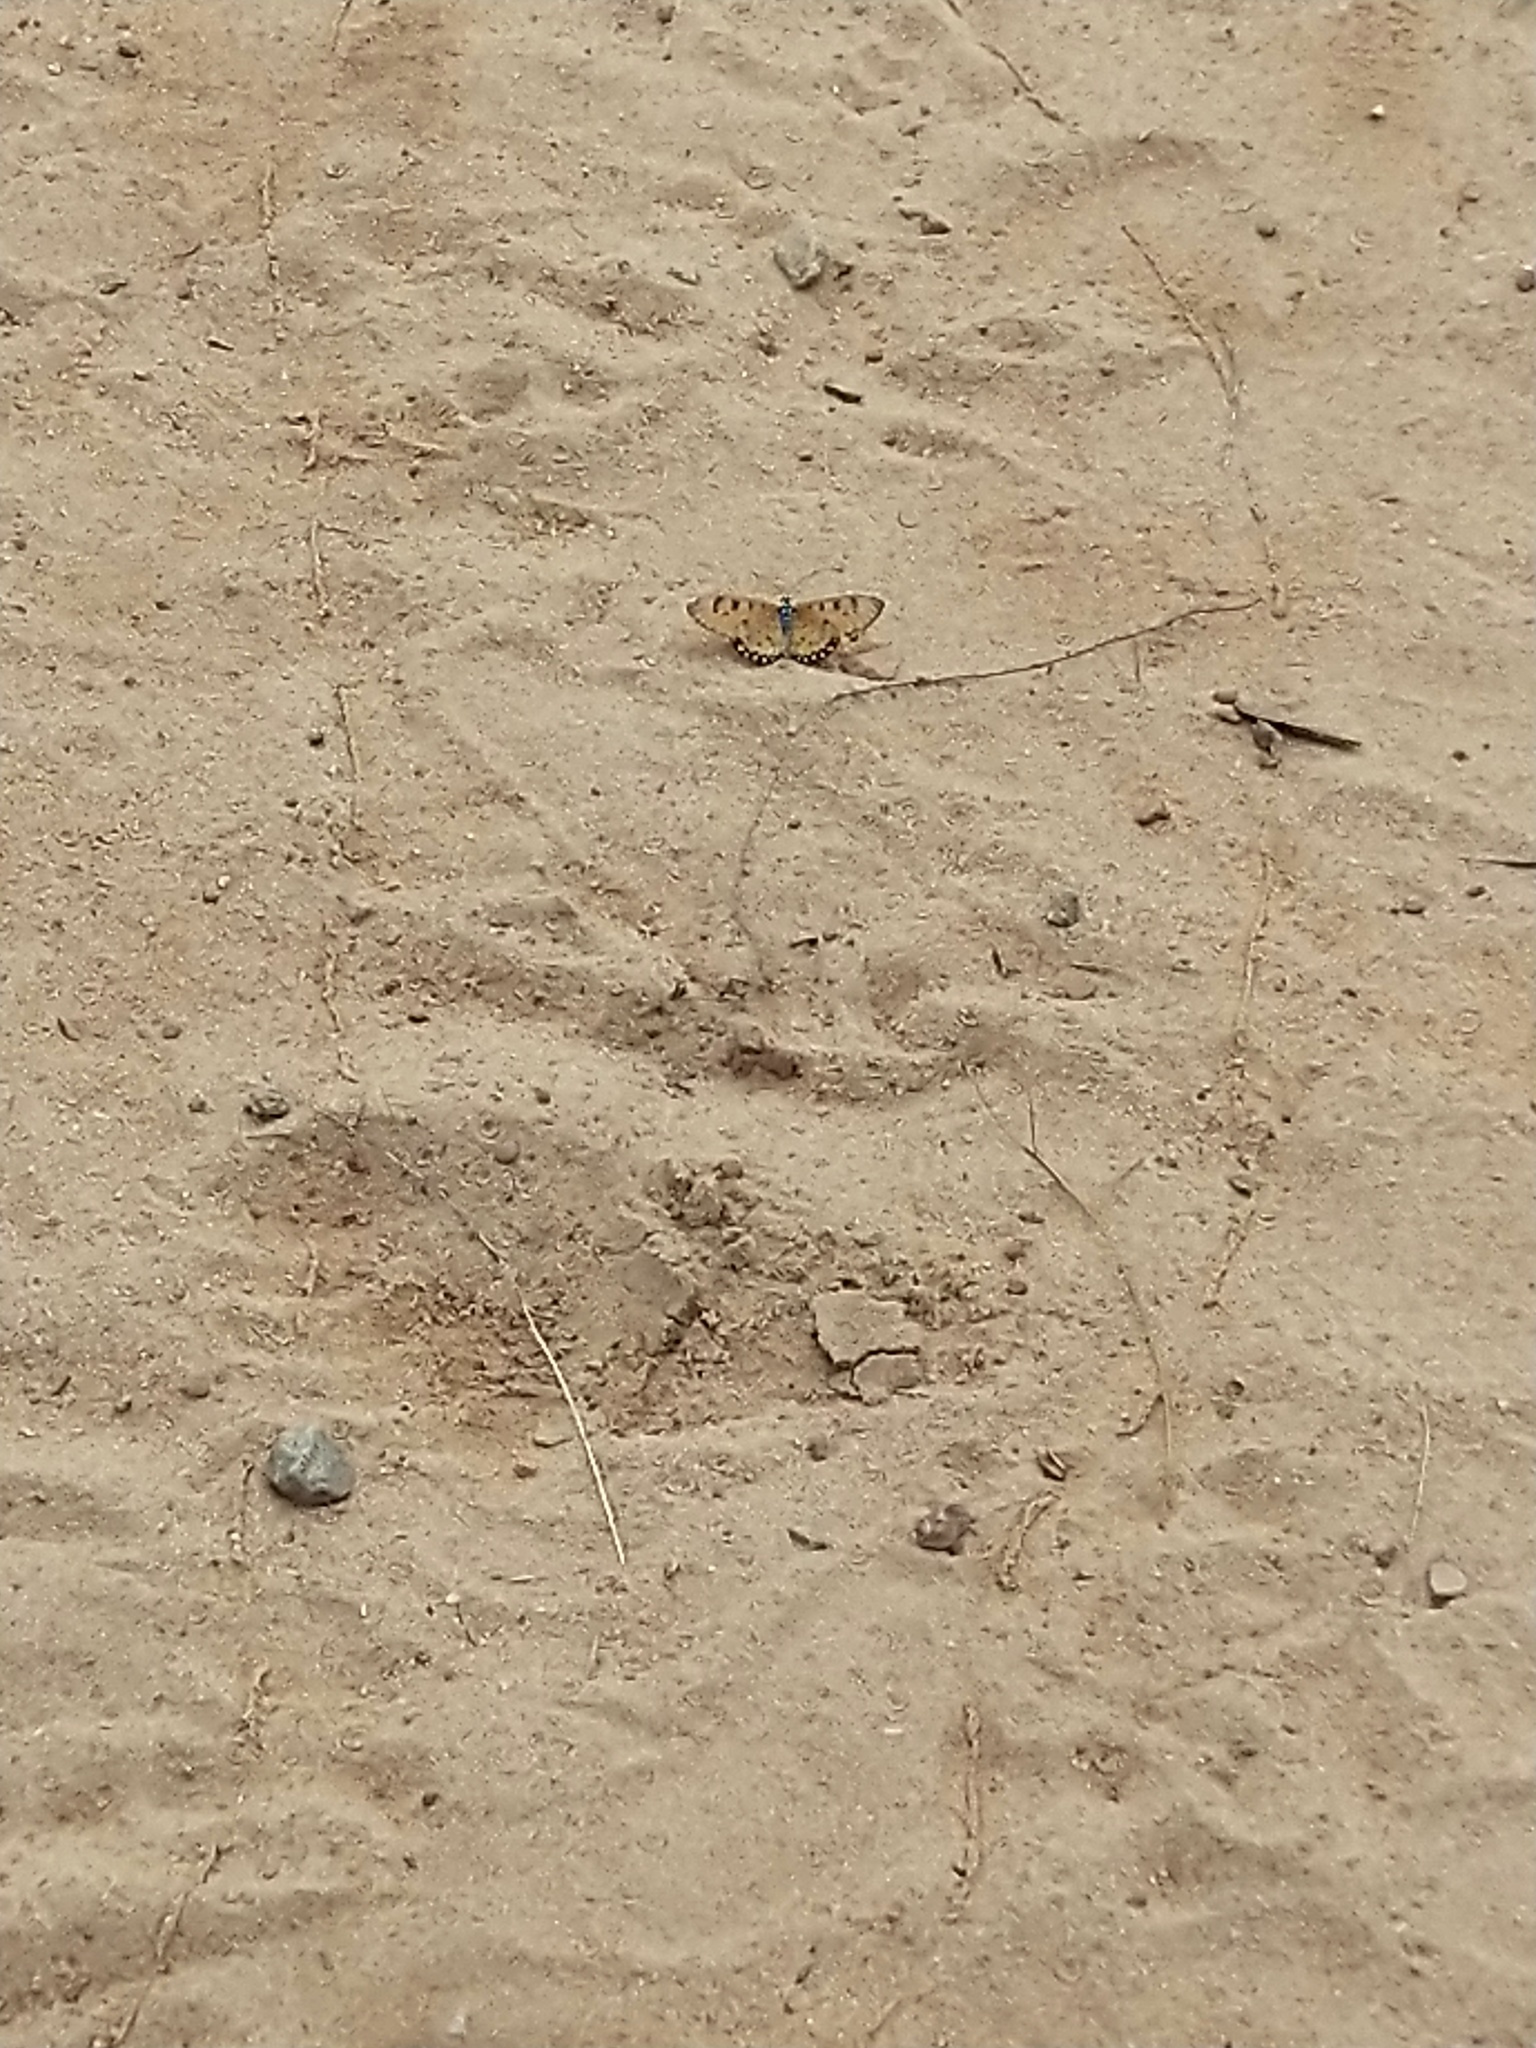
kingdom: Animalia
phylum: Arthropoda
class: Insecta
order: Lepidoptera
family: Nymphalidae
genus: Acraea
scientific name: Acraea terpsicore
